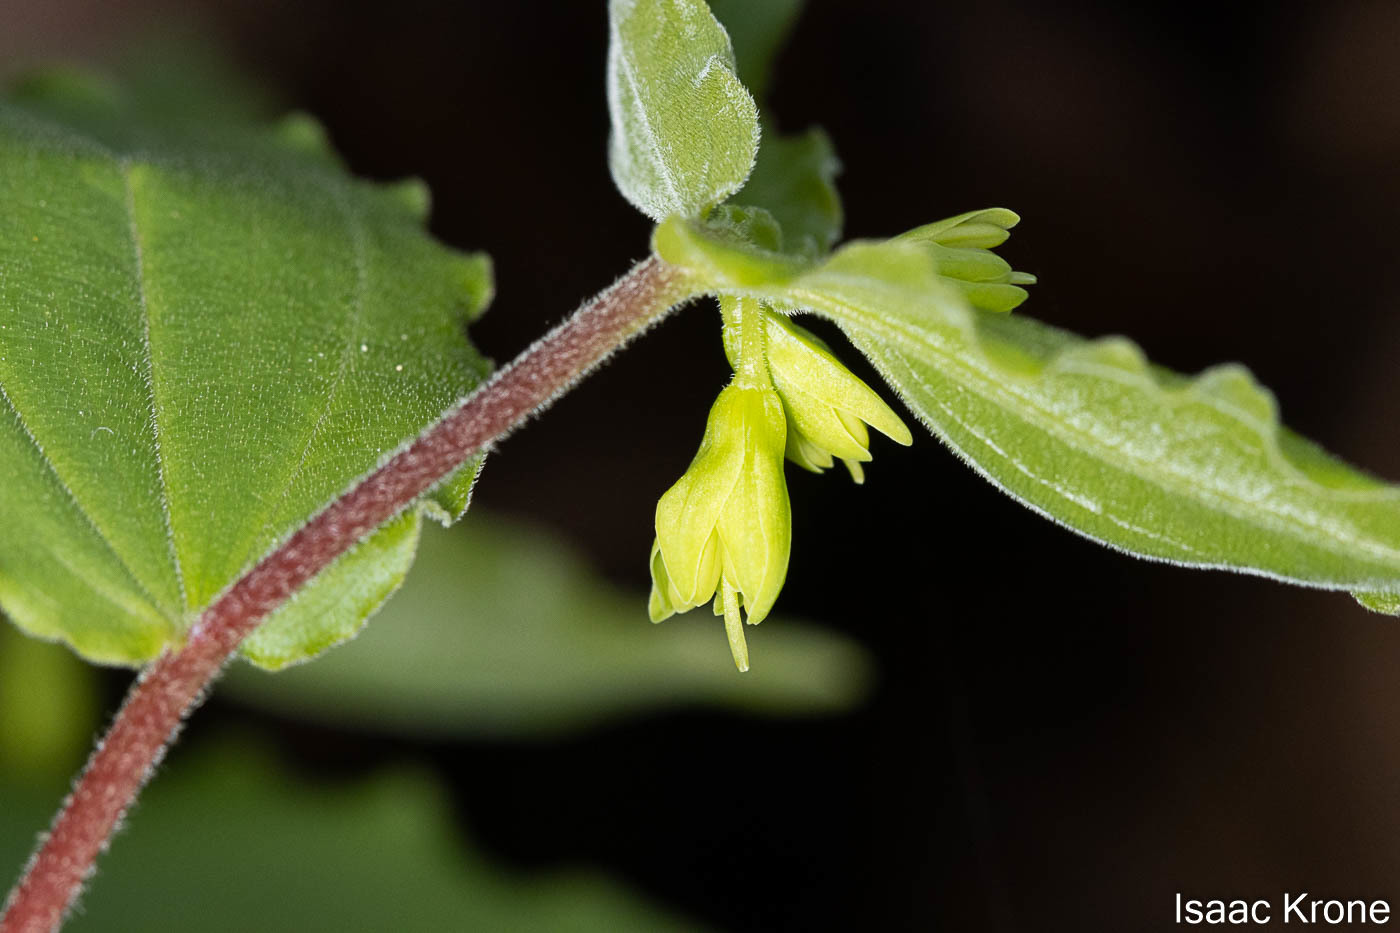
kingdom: Plantae
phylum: Tracheophyta
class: Liliopsida
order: Liliales
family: Liliaceae
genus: Prosartes
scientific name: Prosartes hookeri
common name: Fairy-bells
